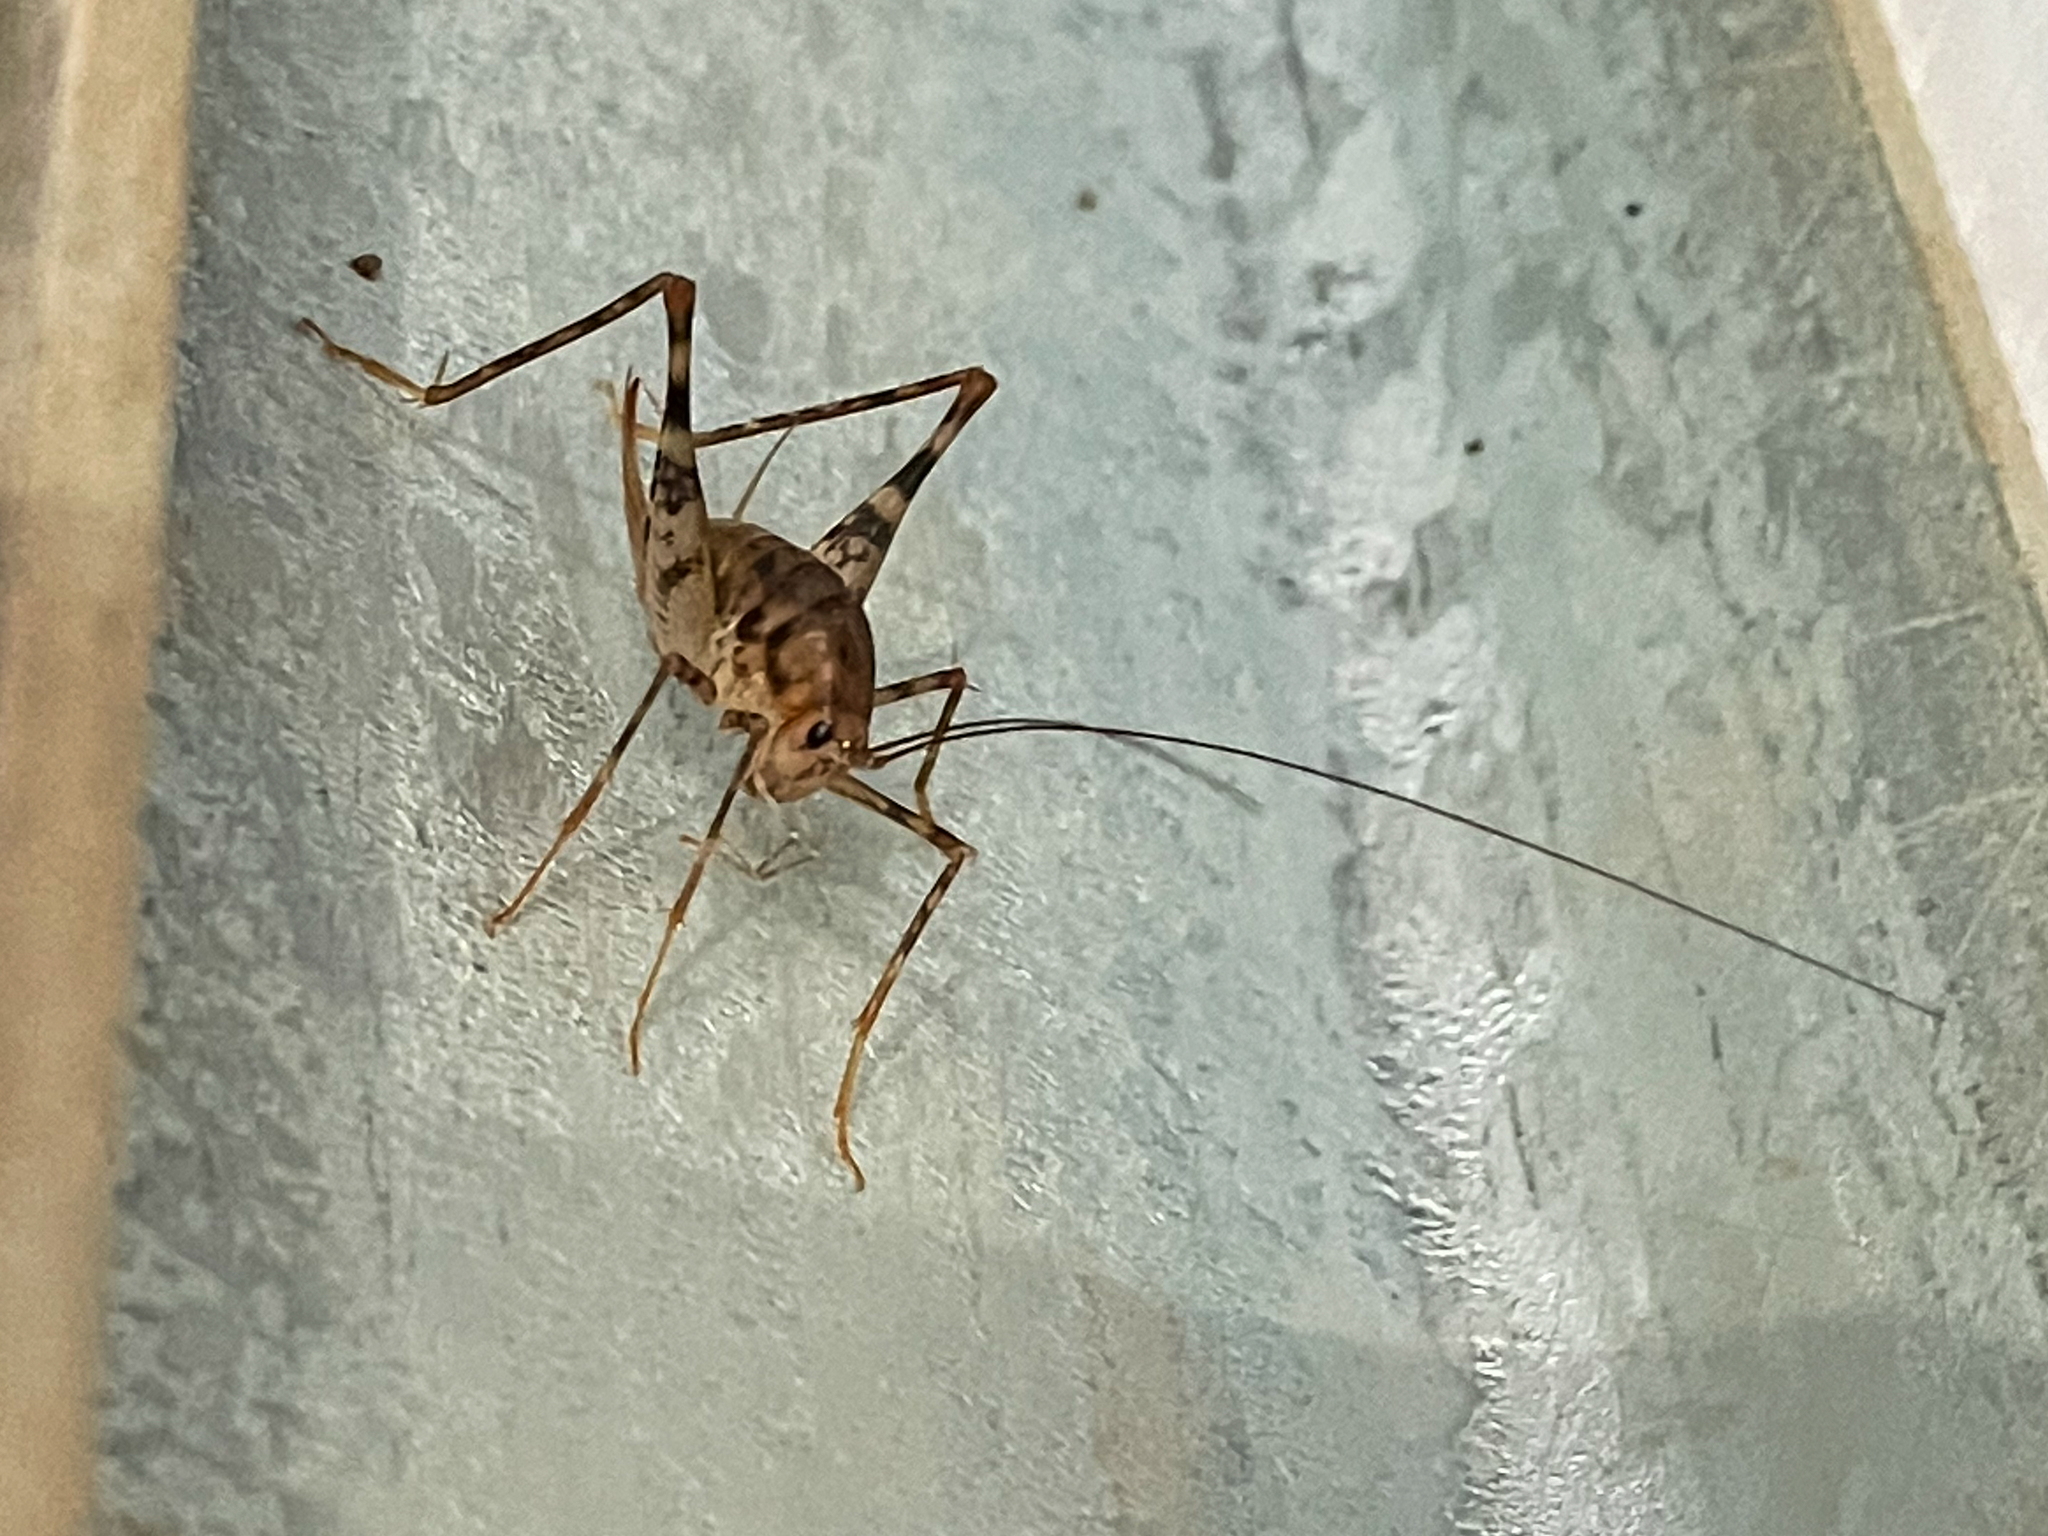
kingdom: Animalia
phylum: Arthropoda
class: Insecta
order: Orthoptera
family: Rhaphidophoridae
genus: Tachycines
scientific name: Tachycines asynamorus
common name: Greenhouse camel cricket
